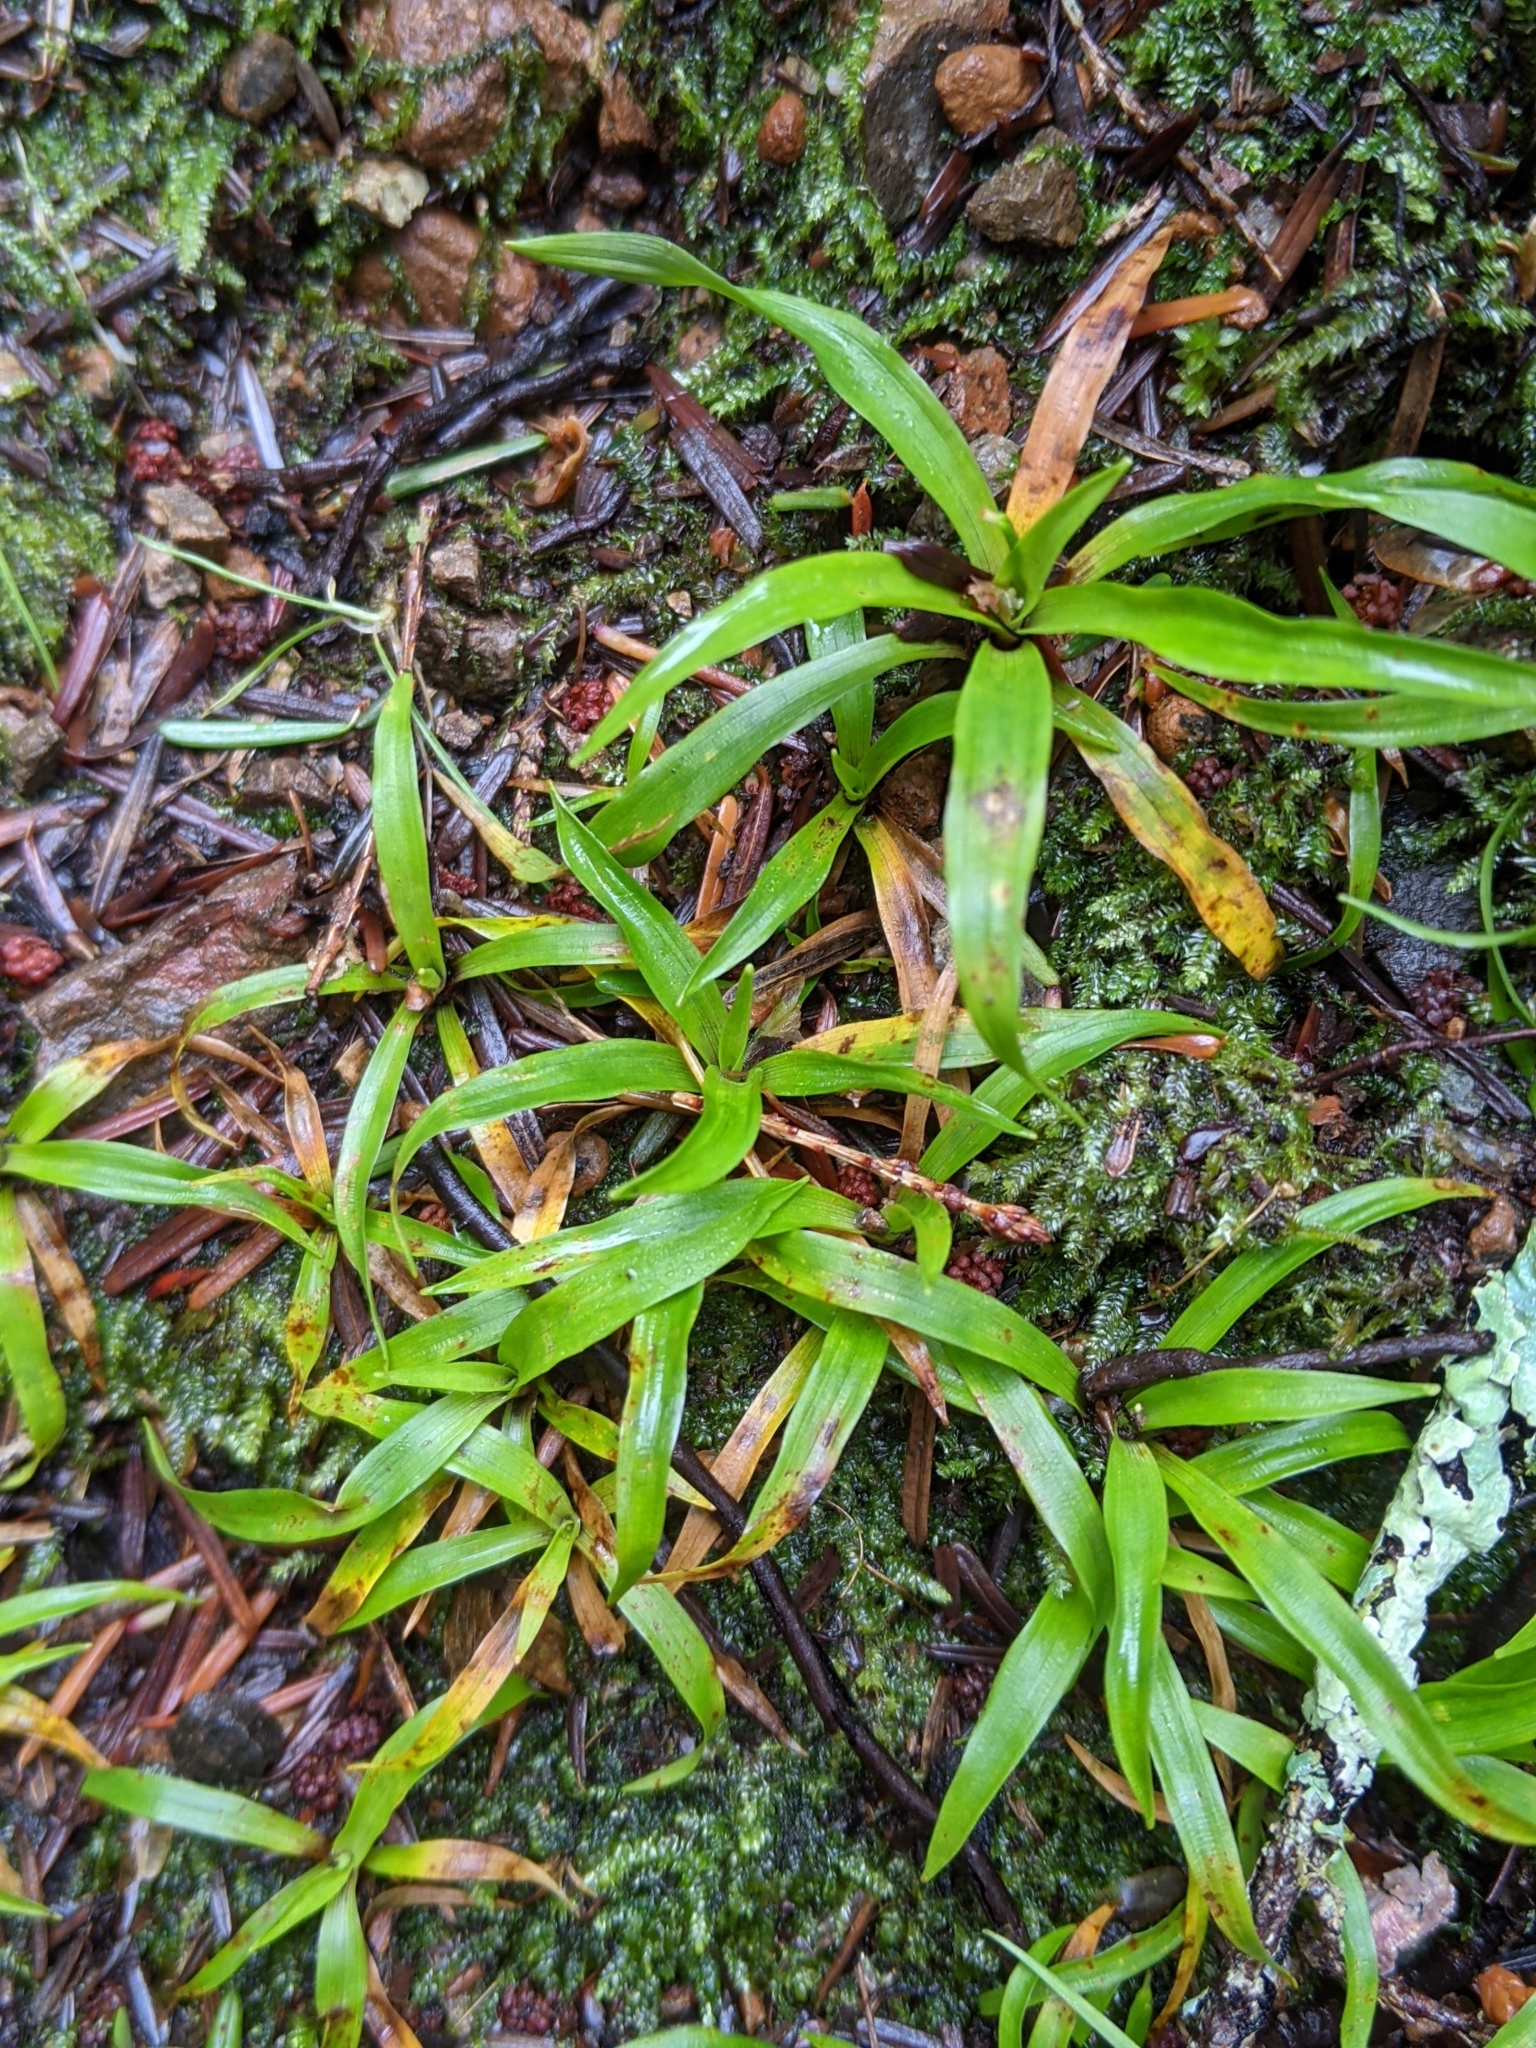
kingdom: Plantae
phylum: Tracheophyta
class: Liliopsida
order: Poales
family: Juncaceae
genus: Luzula
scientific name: Luzula parviflora
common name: Millet woodrush
